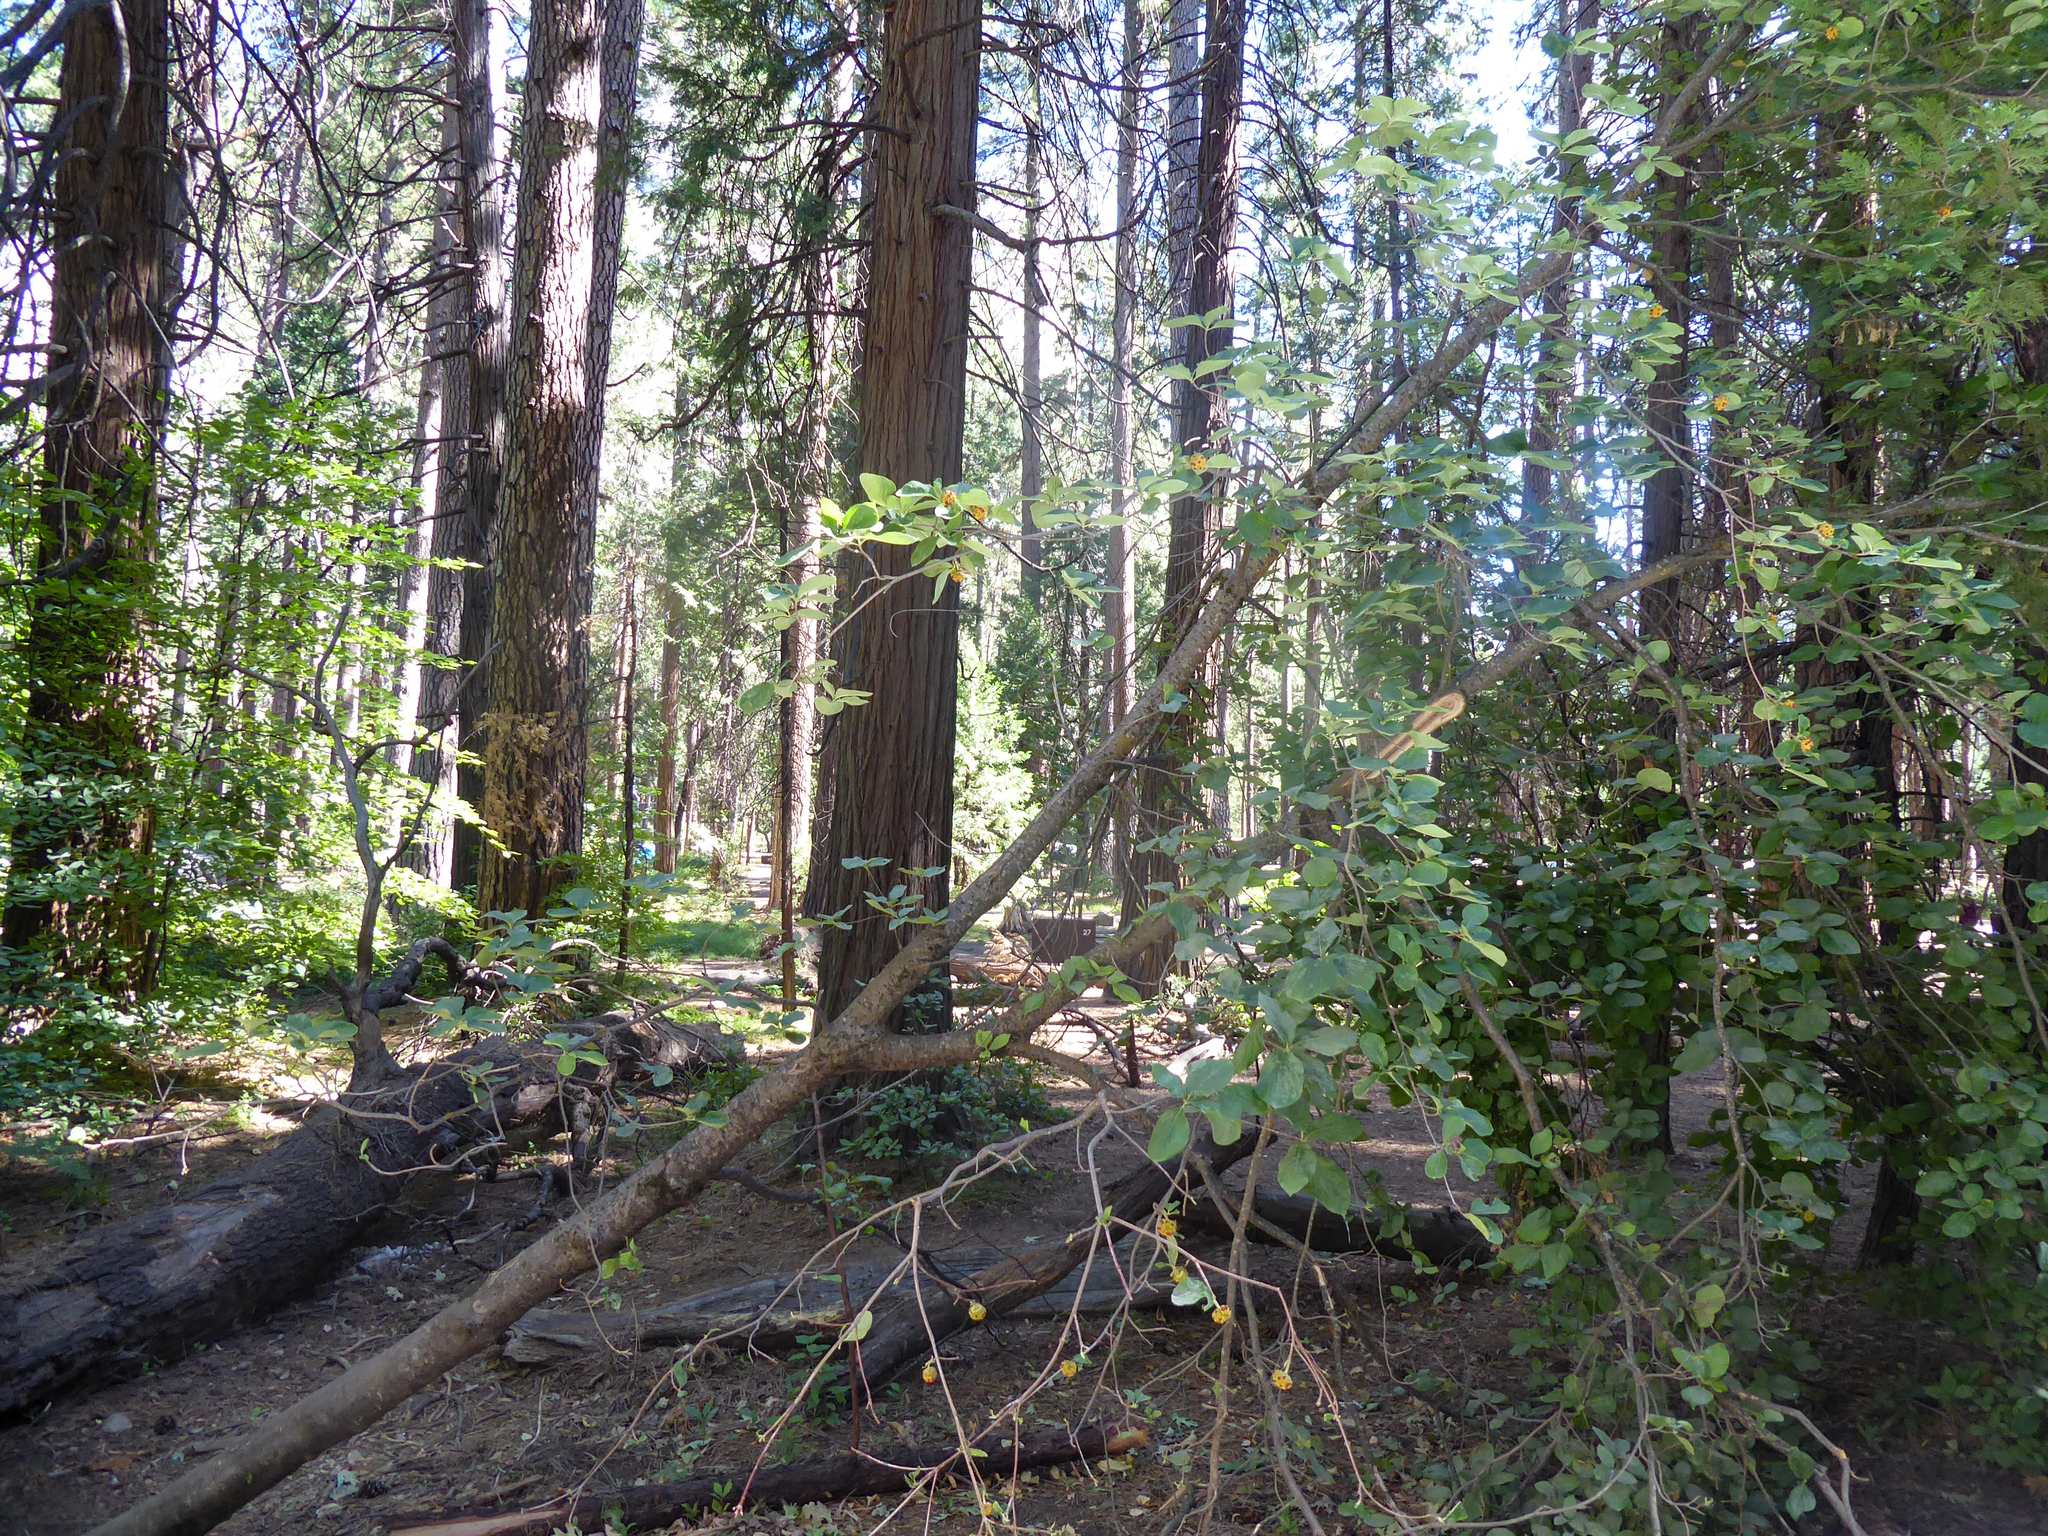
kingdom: Plantae
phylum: Tracheophyta
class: Magnoliopsida
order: Cornales
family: Cornaceae
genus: Cornus
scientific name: Cornus nuttallii
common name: Pacific dogwood
